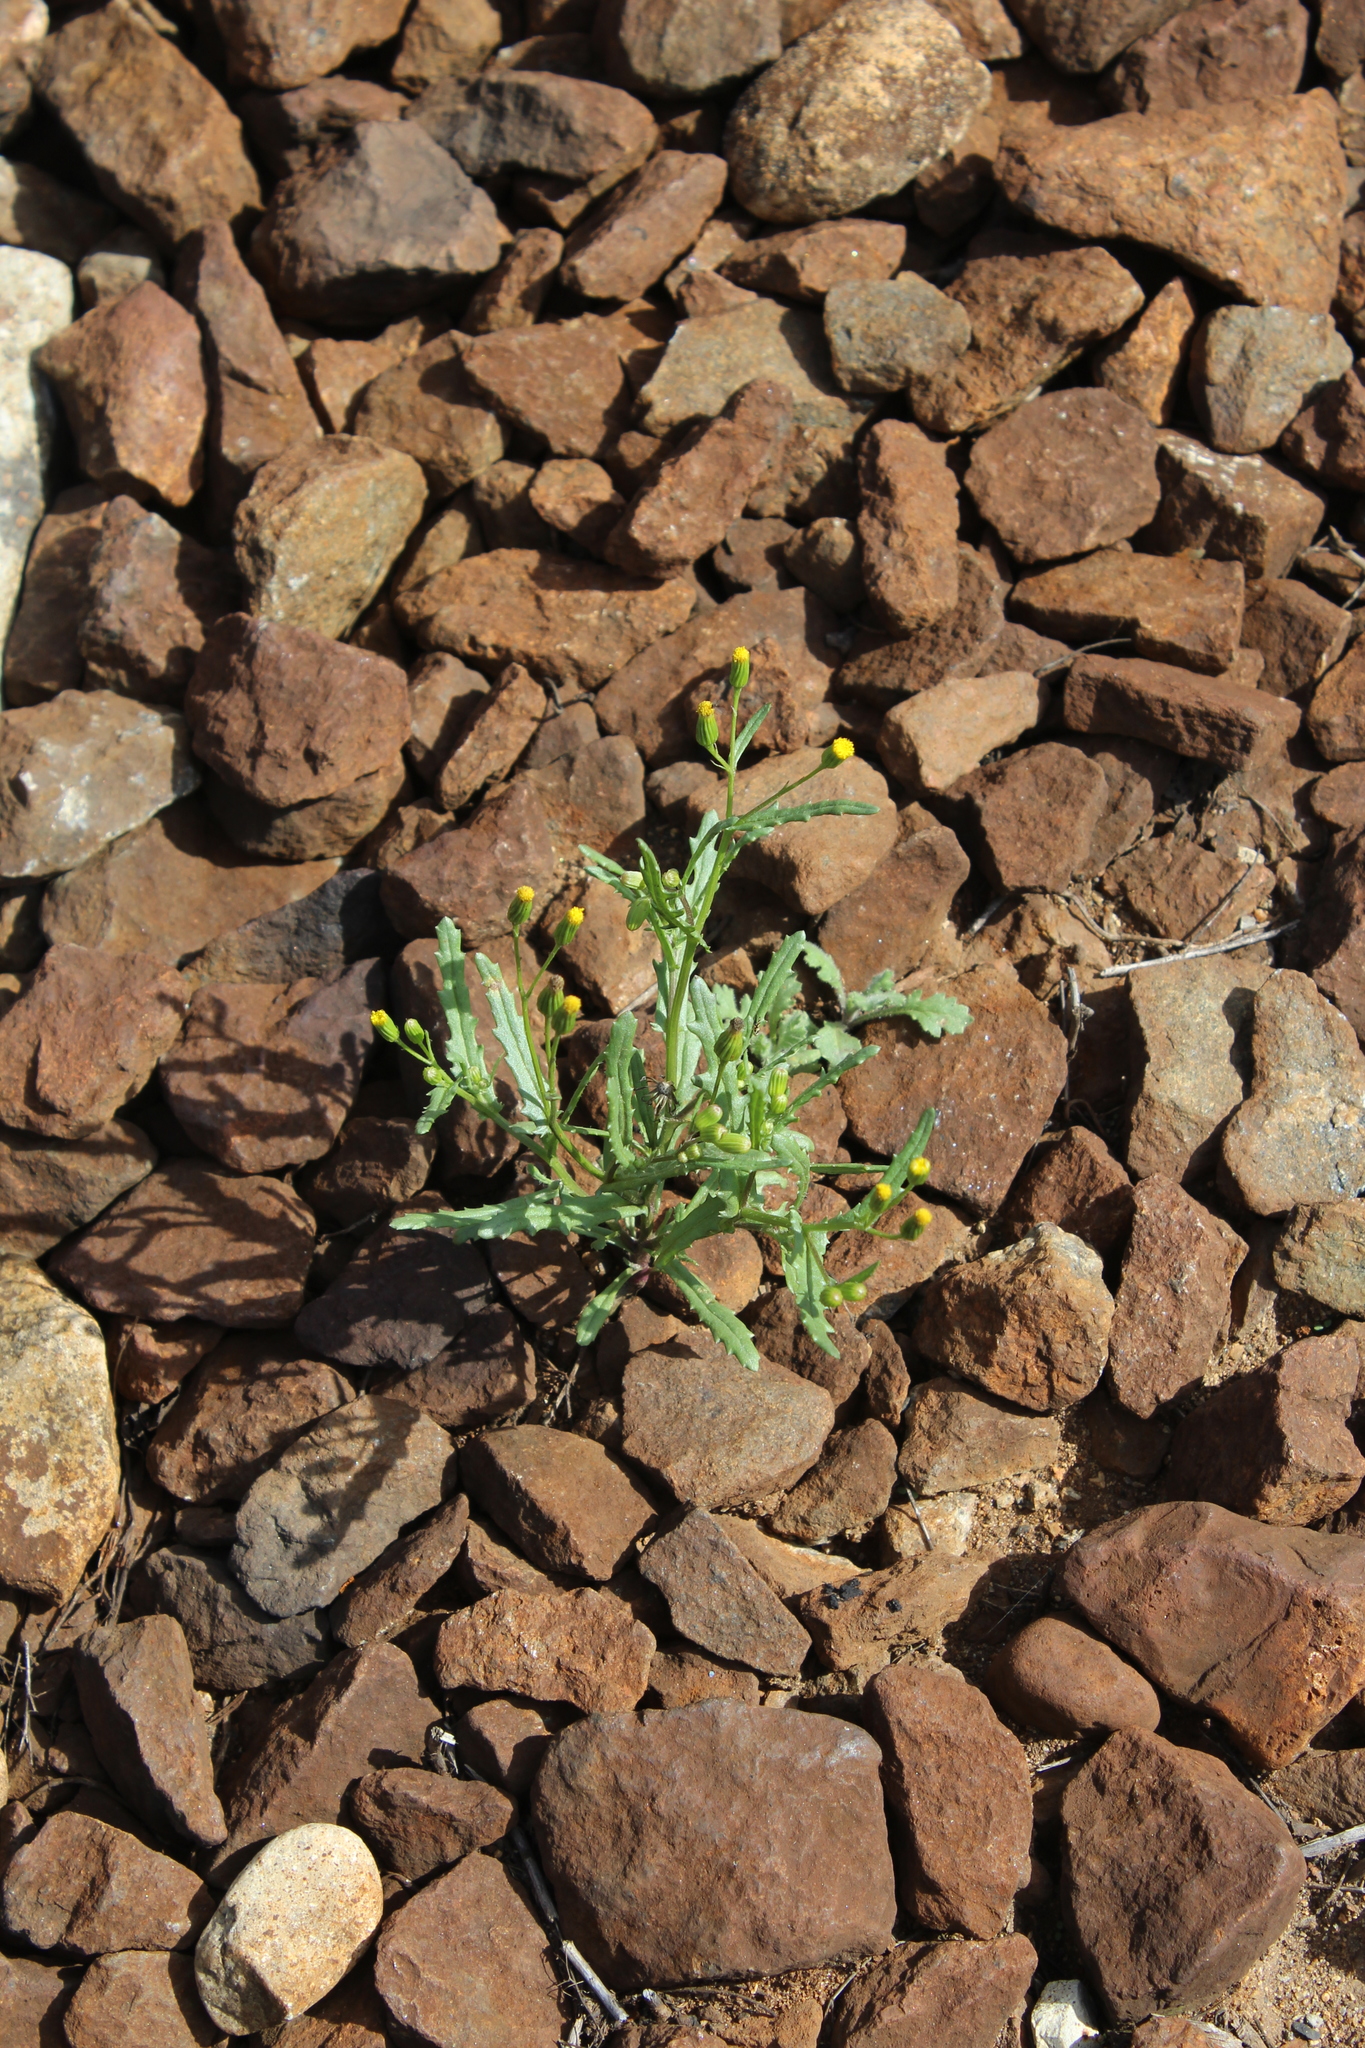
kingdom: Plantae
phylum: Tracheophyta
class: Magnoliopsida
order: Asterales
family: Asteraceae
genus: Senecio
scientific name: Senecio dubitabilis
